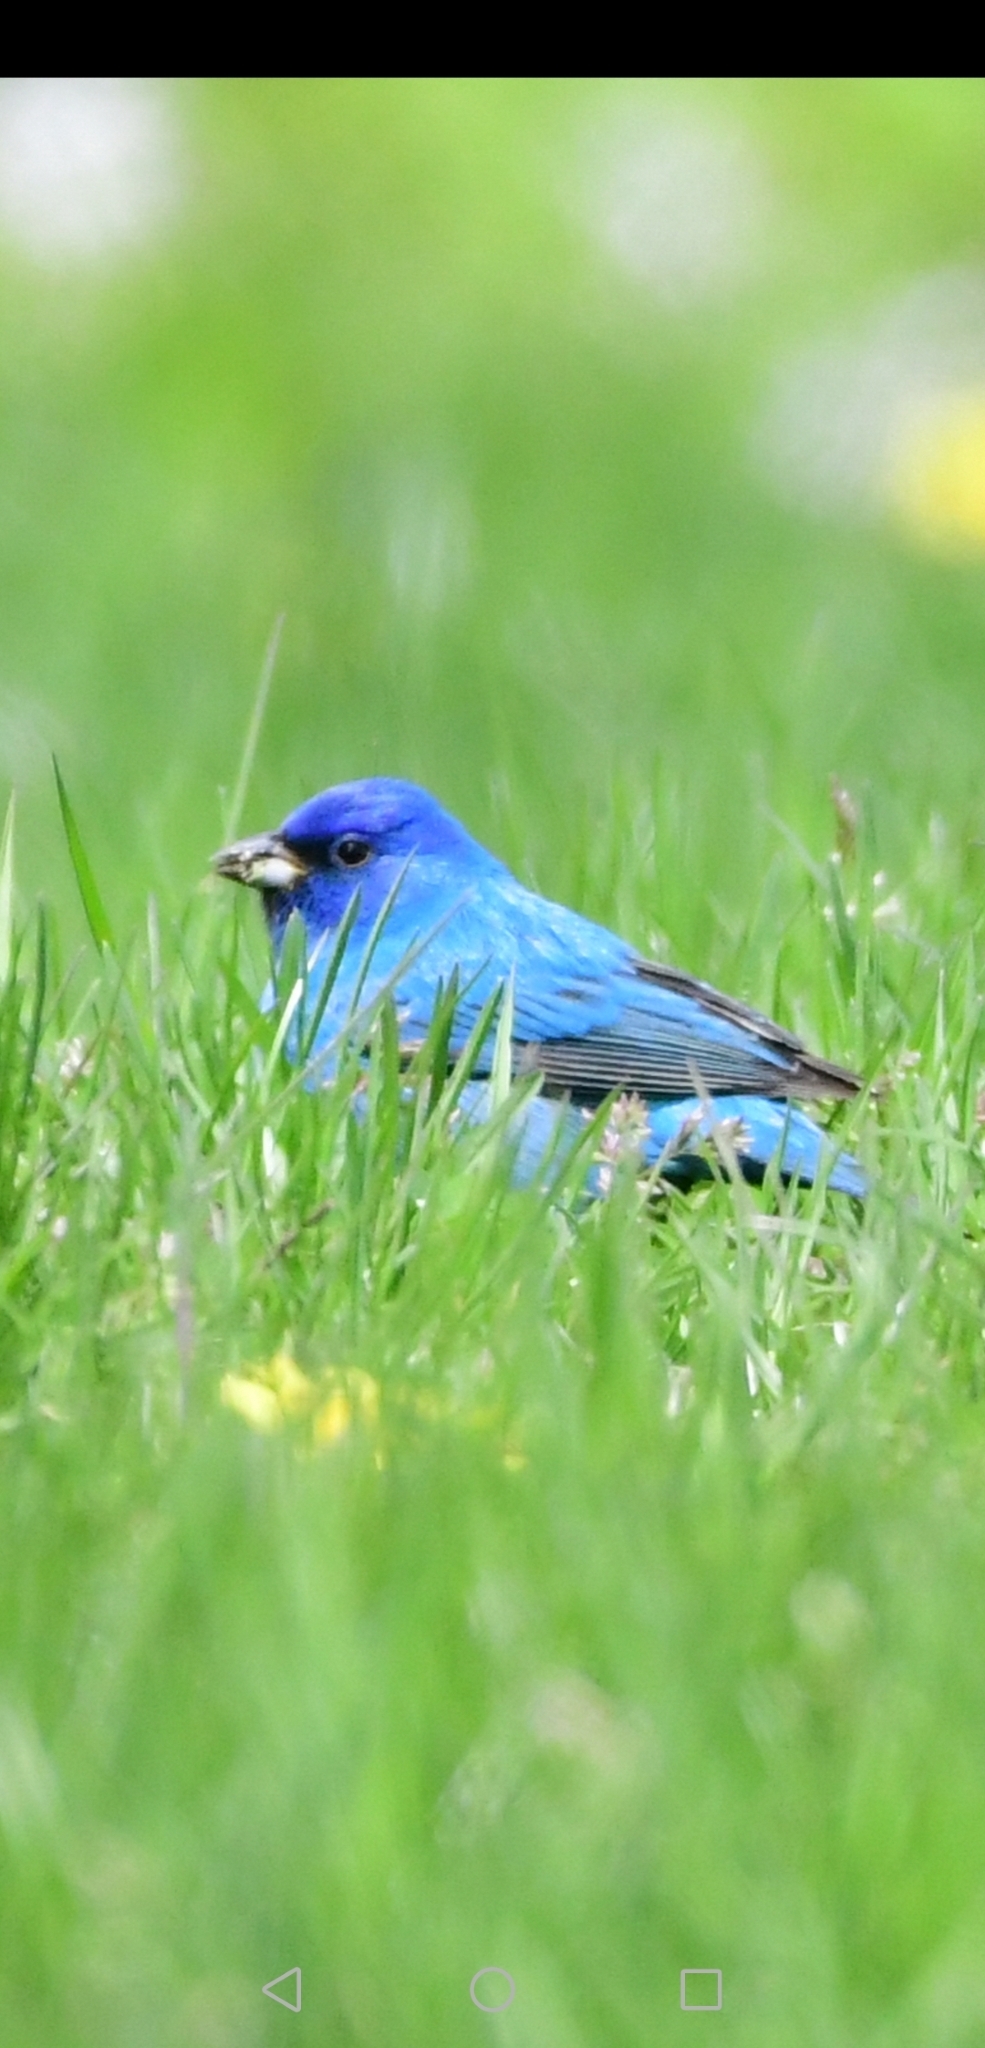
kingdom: Animalia
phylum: Chordata
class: Aves
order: Passeriformes
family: Cardinalidae
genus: Passerina
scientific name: Passerina cyanea
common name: Indigo bunting
